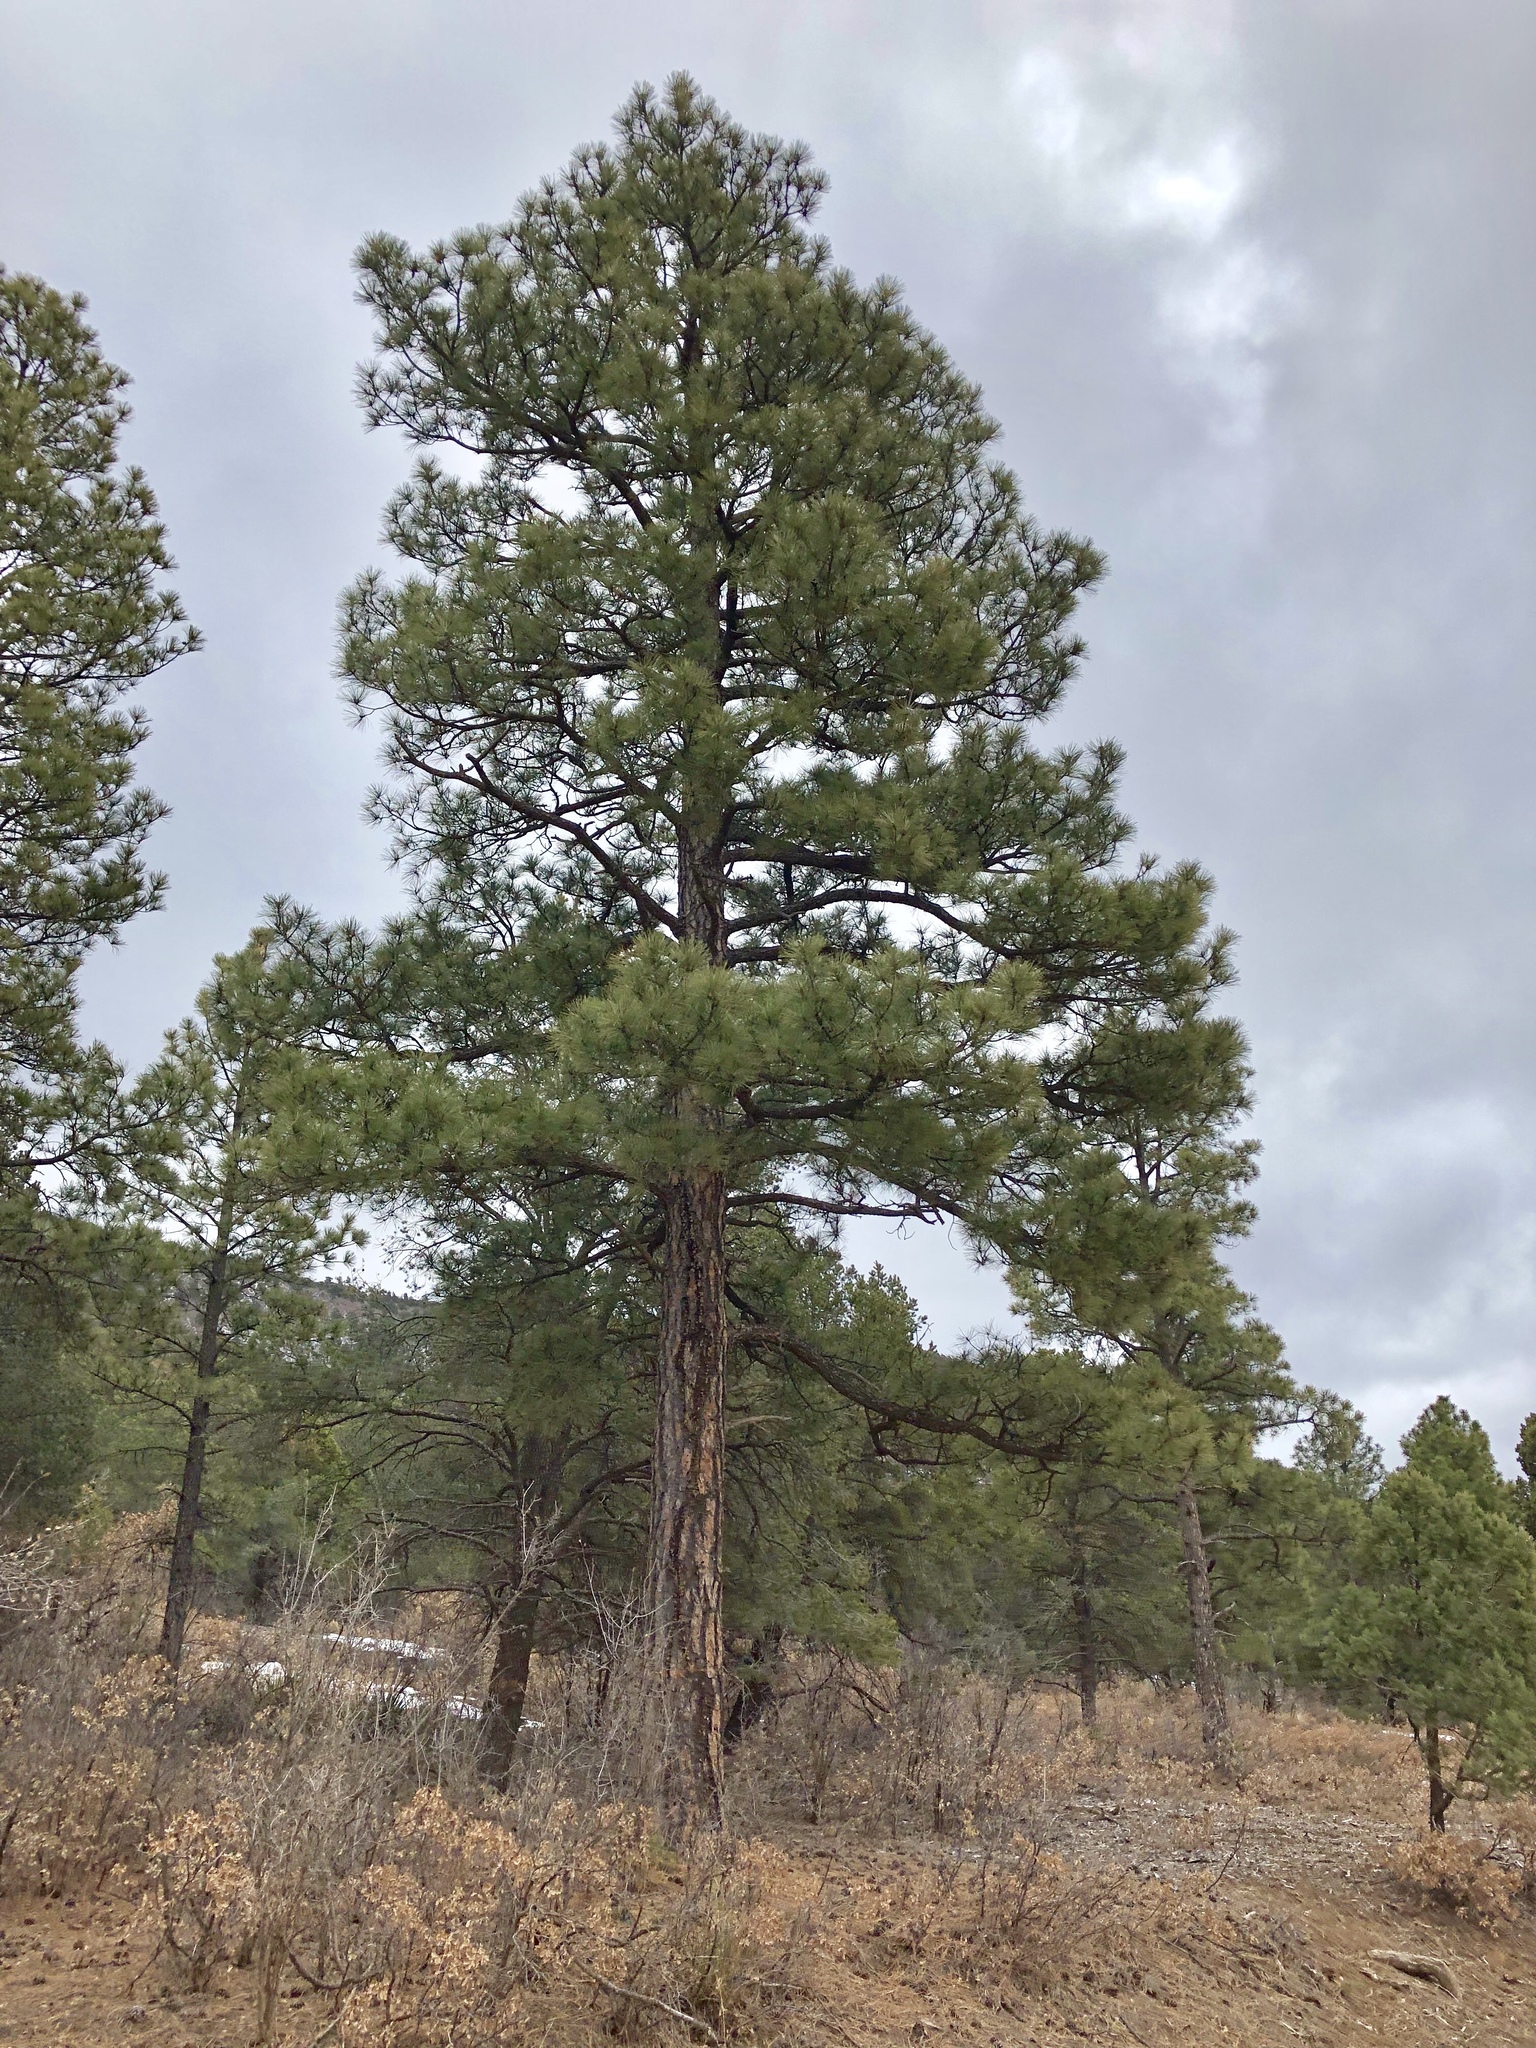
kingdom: Plantae
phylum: Tracheophyta
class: Pinopsida
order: Pinales
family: Pinaceae
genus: Pinus
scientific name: Pinus ponderosa
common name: Western yellow-pine
